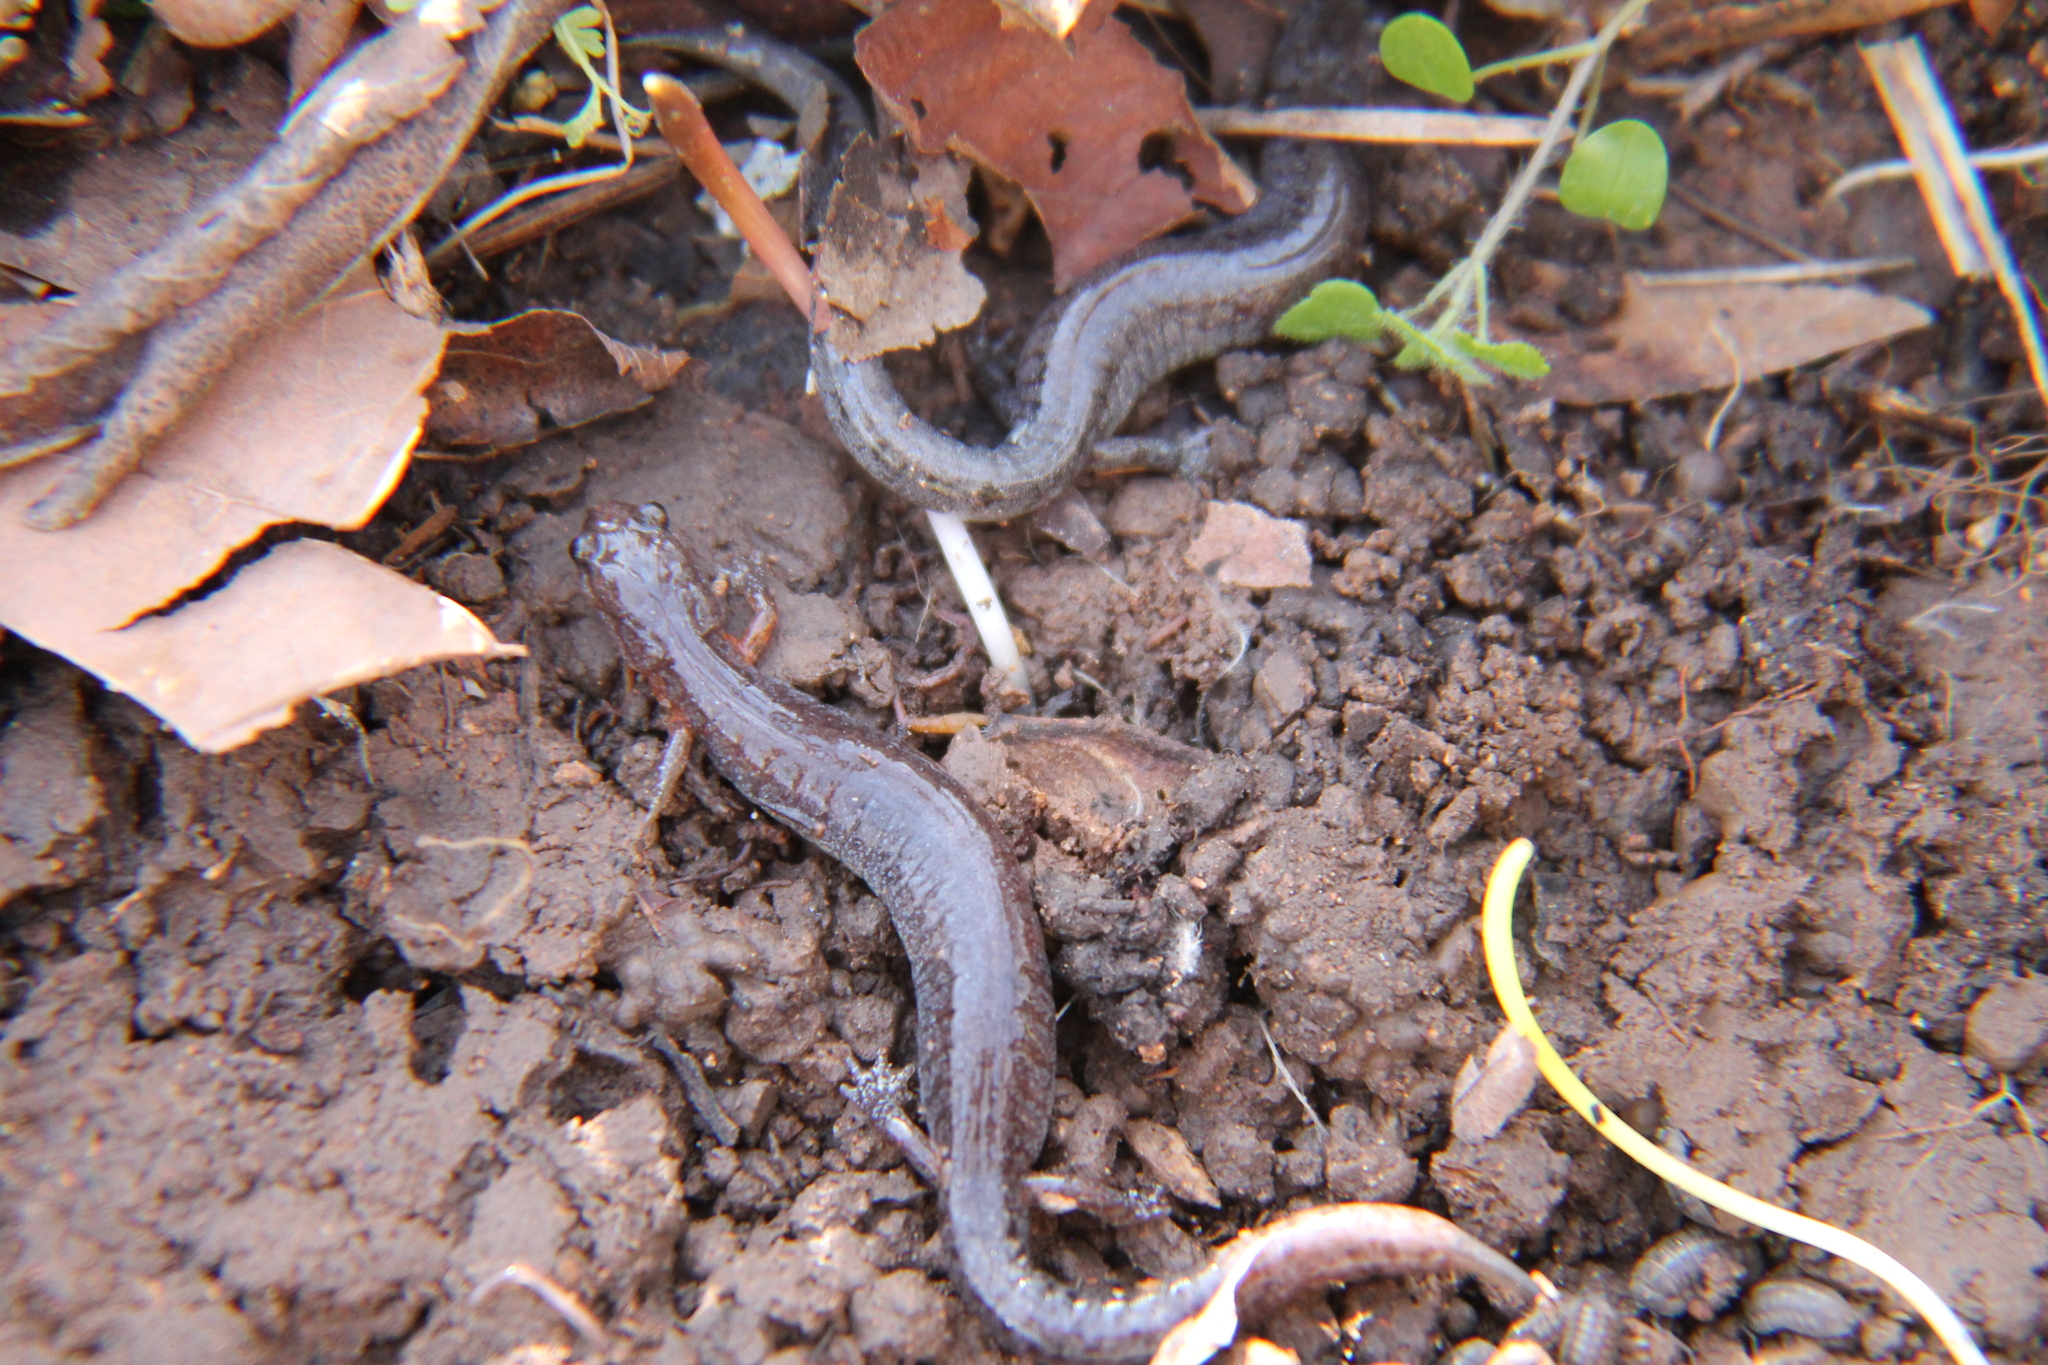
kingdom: Animalia
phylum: Chordata
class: Amphibia
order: Caudata
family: Plethodontidae
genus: Plethodon
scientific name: Plethodon dorsalis
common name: Northern zigzag salamander
